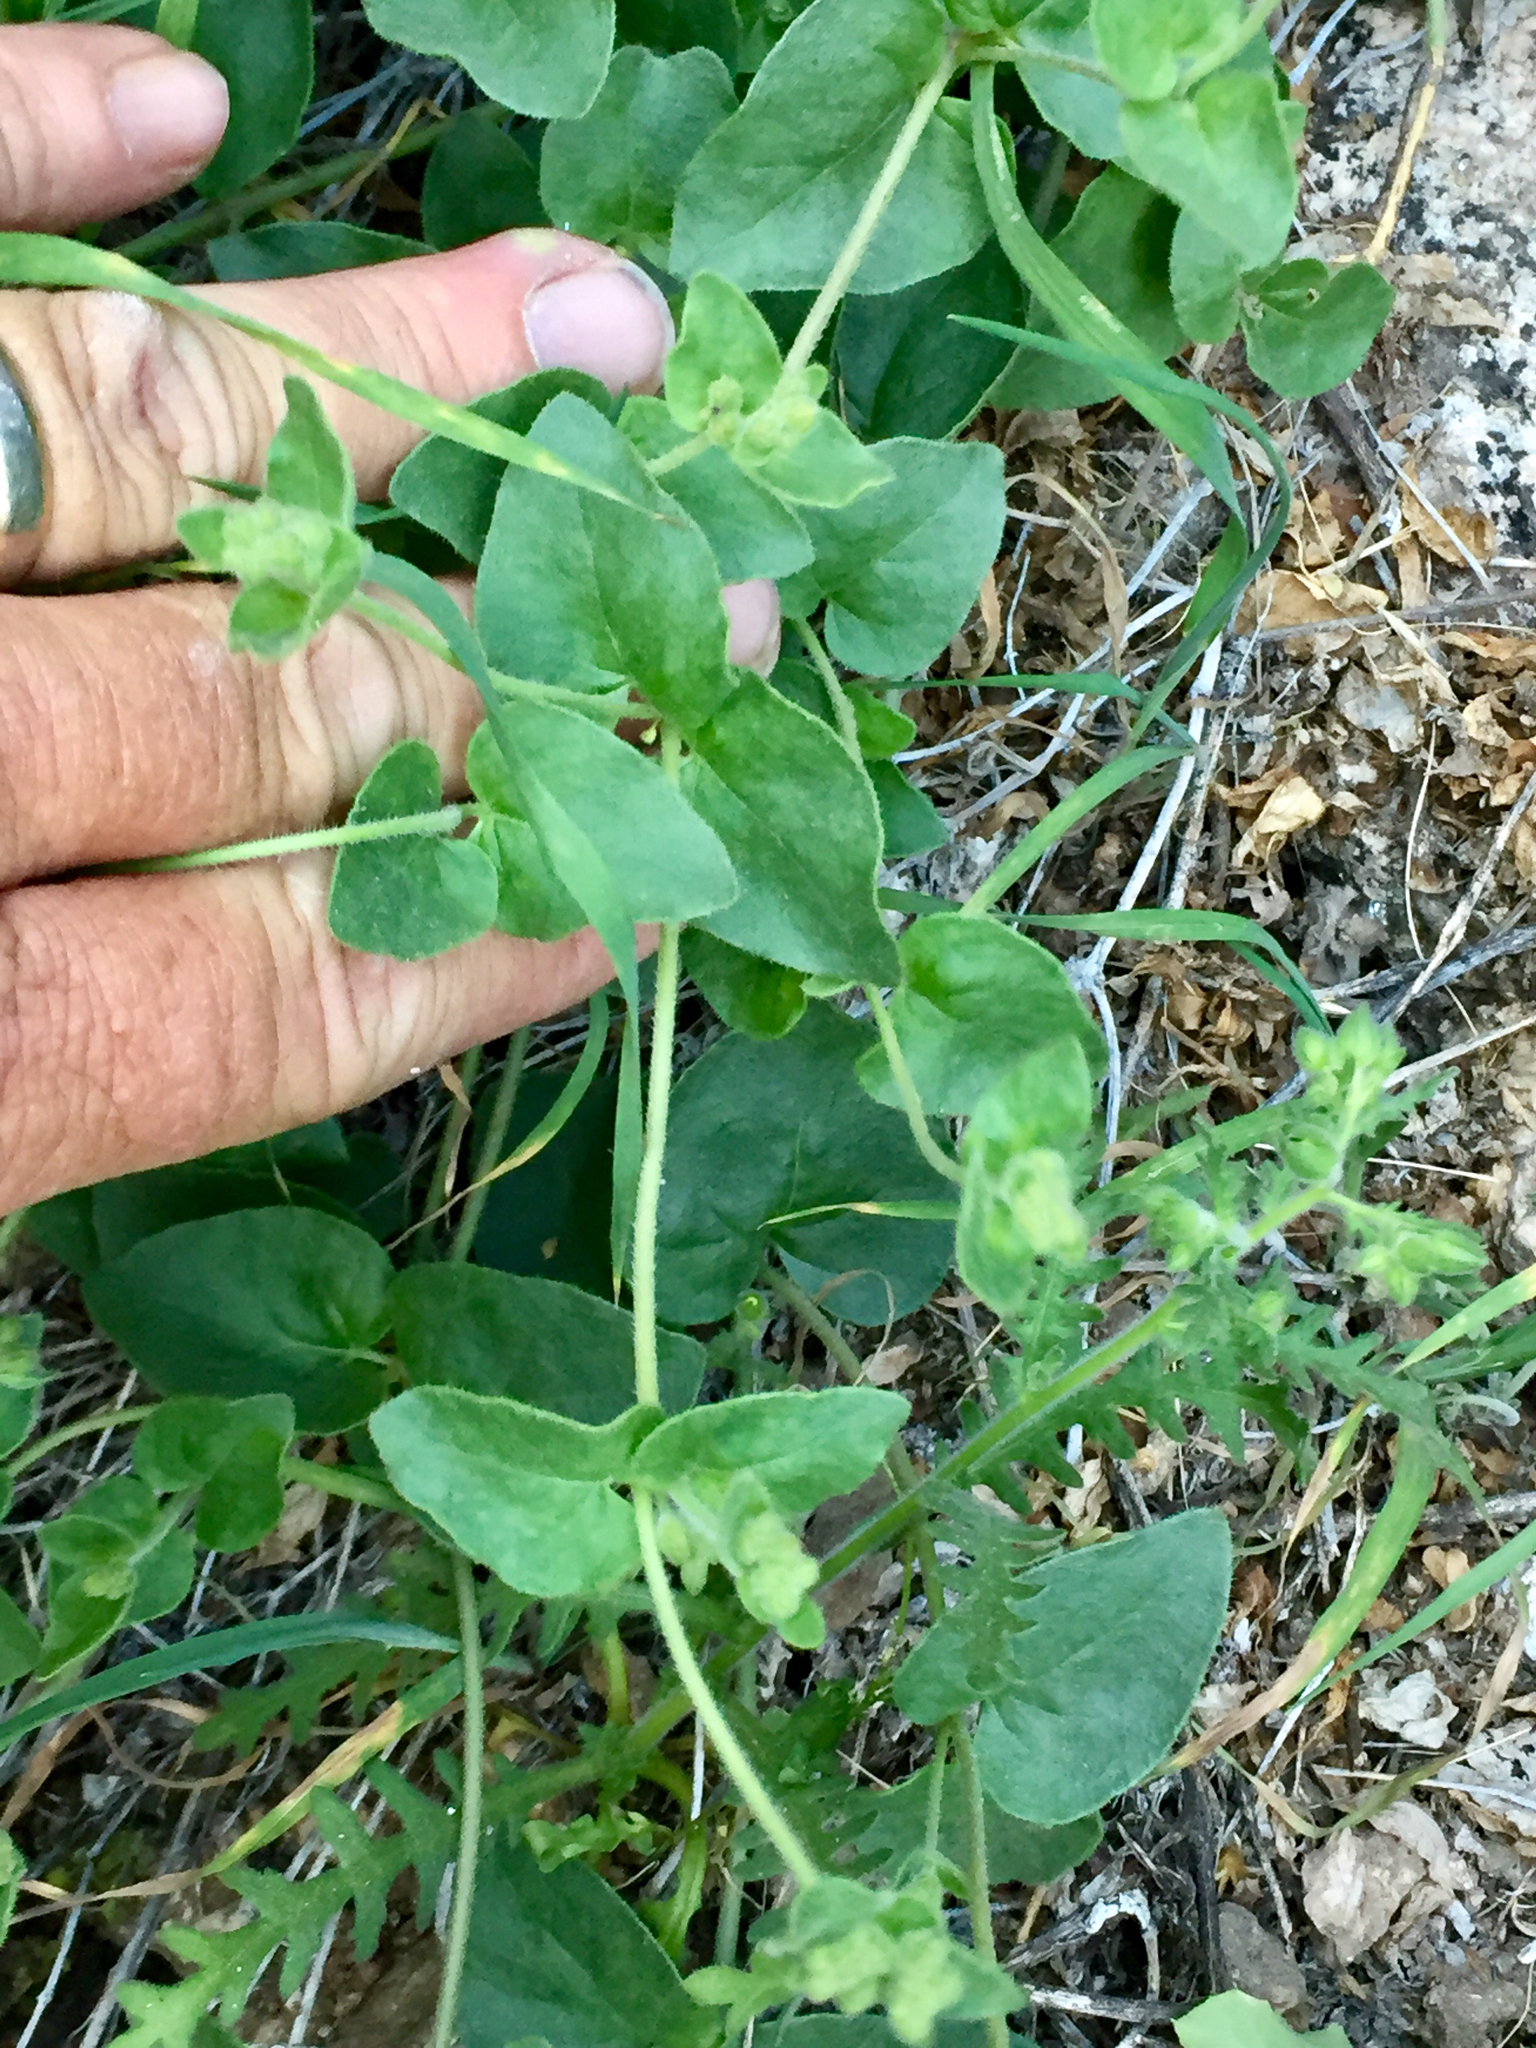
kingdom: Plantae
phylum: Tracheophyta
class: Magnoliopsida
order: Caryophyllales
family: Nyctaginaceae
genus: Mirabilis
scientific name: Mirabilis laevis
